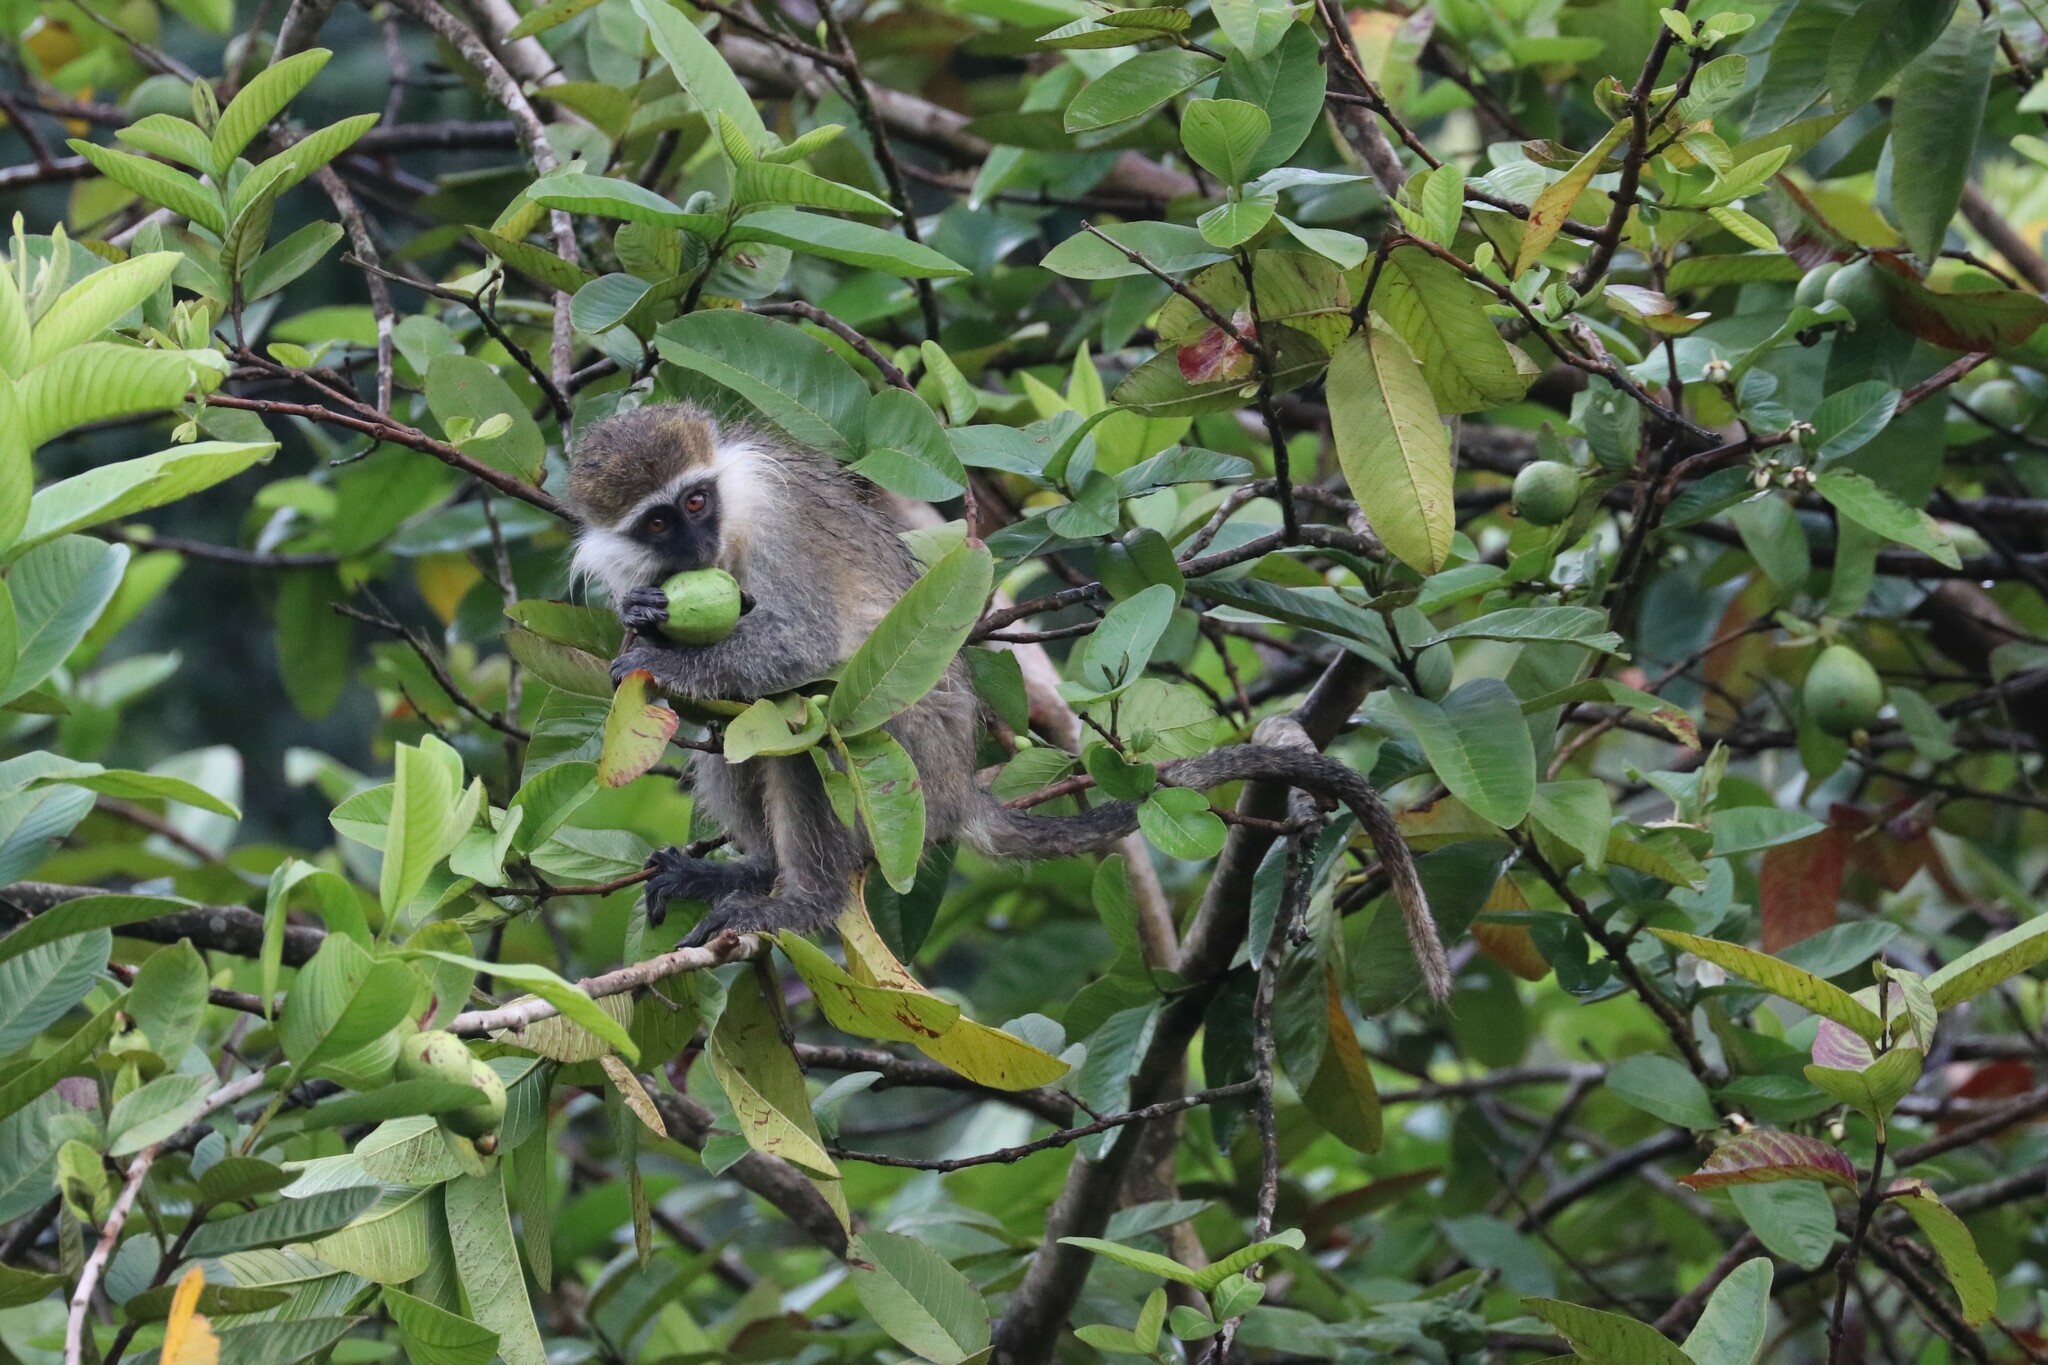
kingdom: Animalia
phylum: Chordata
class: Mammalia
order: Primates
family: Cercopithecidae
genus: Chlorocebus
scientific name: Chlorocebus aethiops
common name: Grivet
